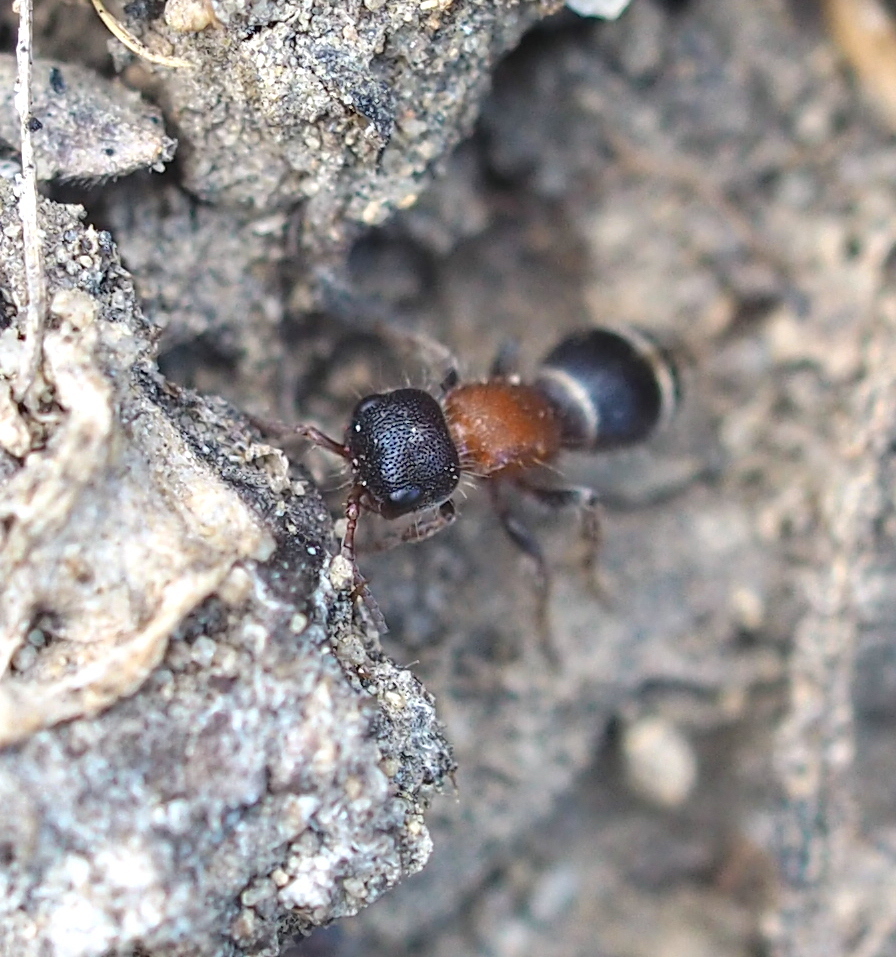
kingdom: Animalia
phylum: Arthropoda
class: Insecta
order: Hymenoptera
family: Mutillidae
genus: Myrmilla
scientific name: Myrmilla calva
